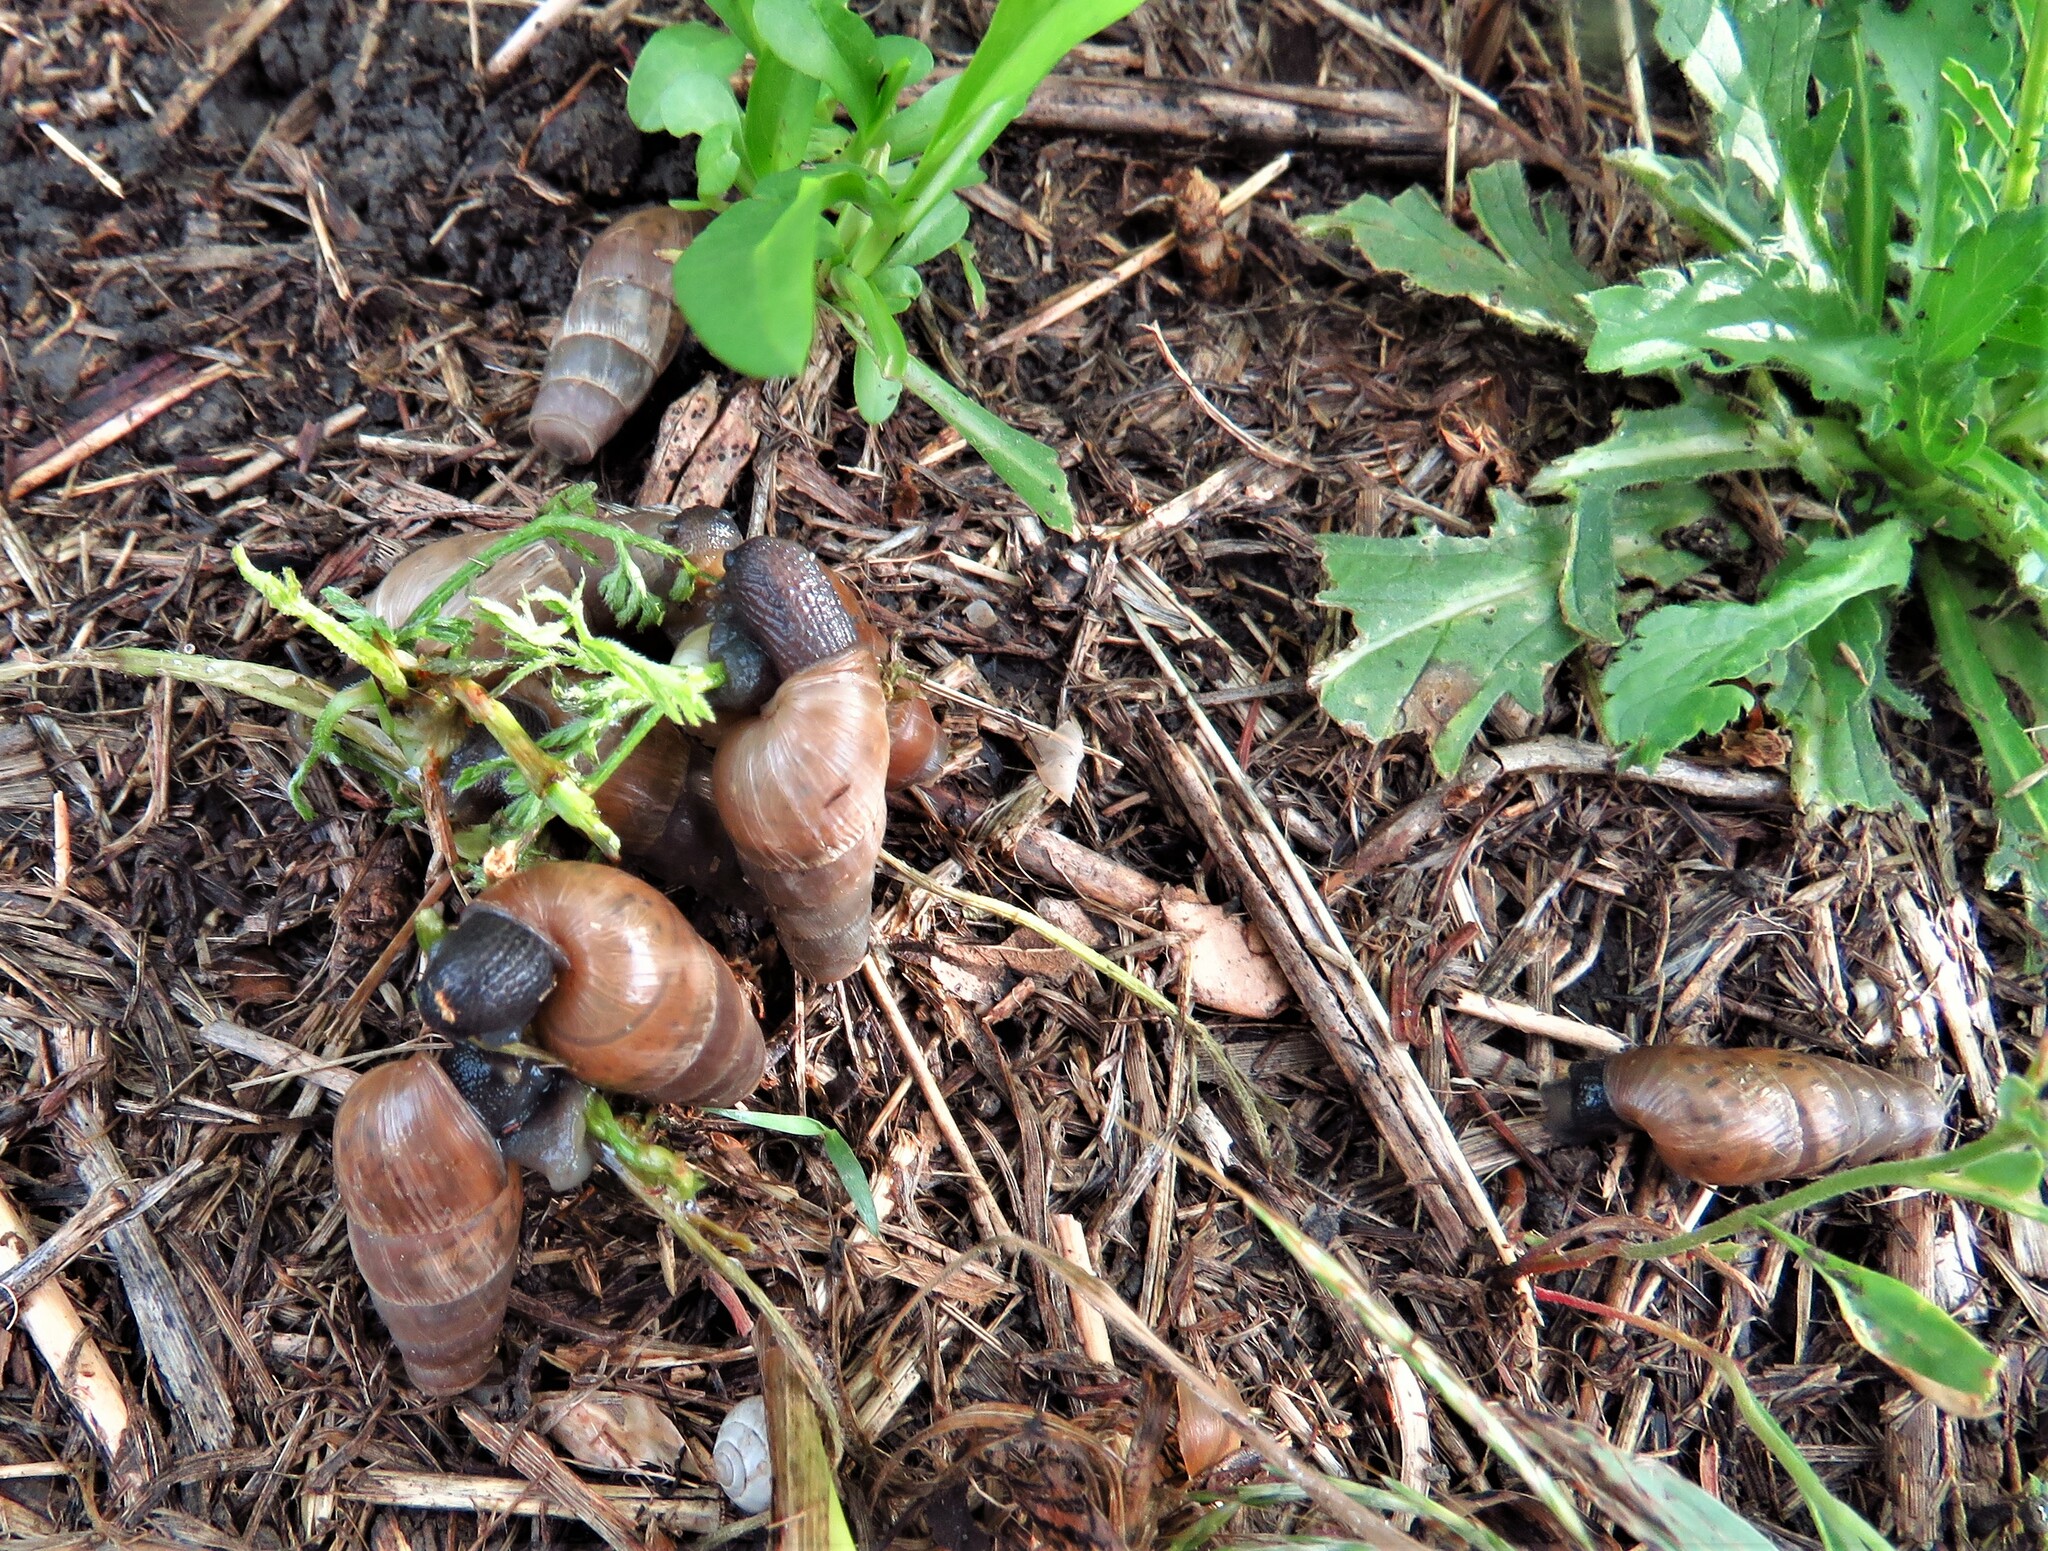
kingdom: Animalia
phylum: Mollusca
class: Gastropoda
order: Stylommatophora
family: Achatinidae
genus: Rumina
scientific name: Rumina decollata
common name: Decollate snail
